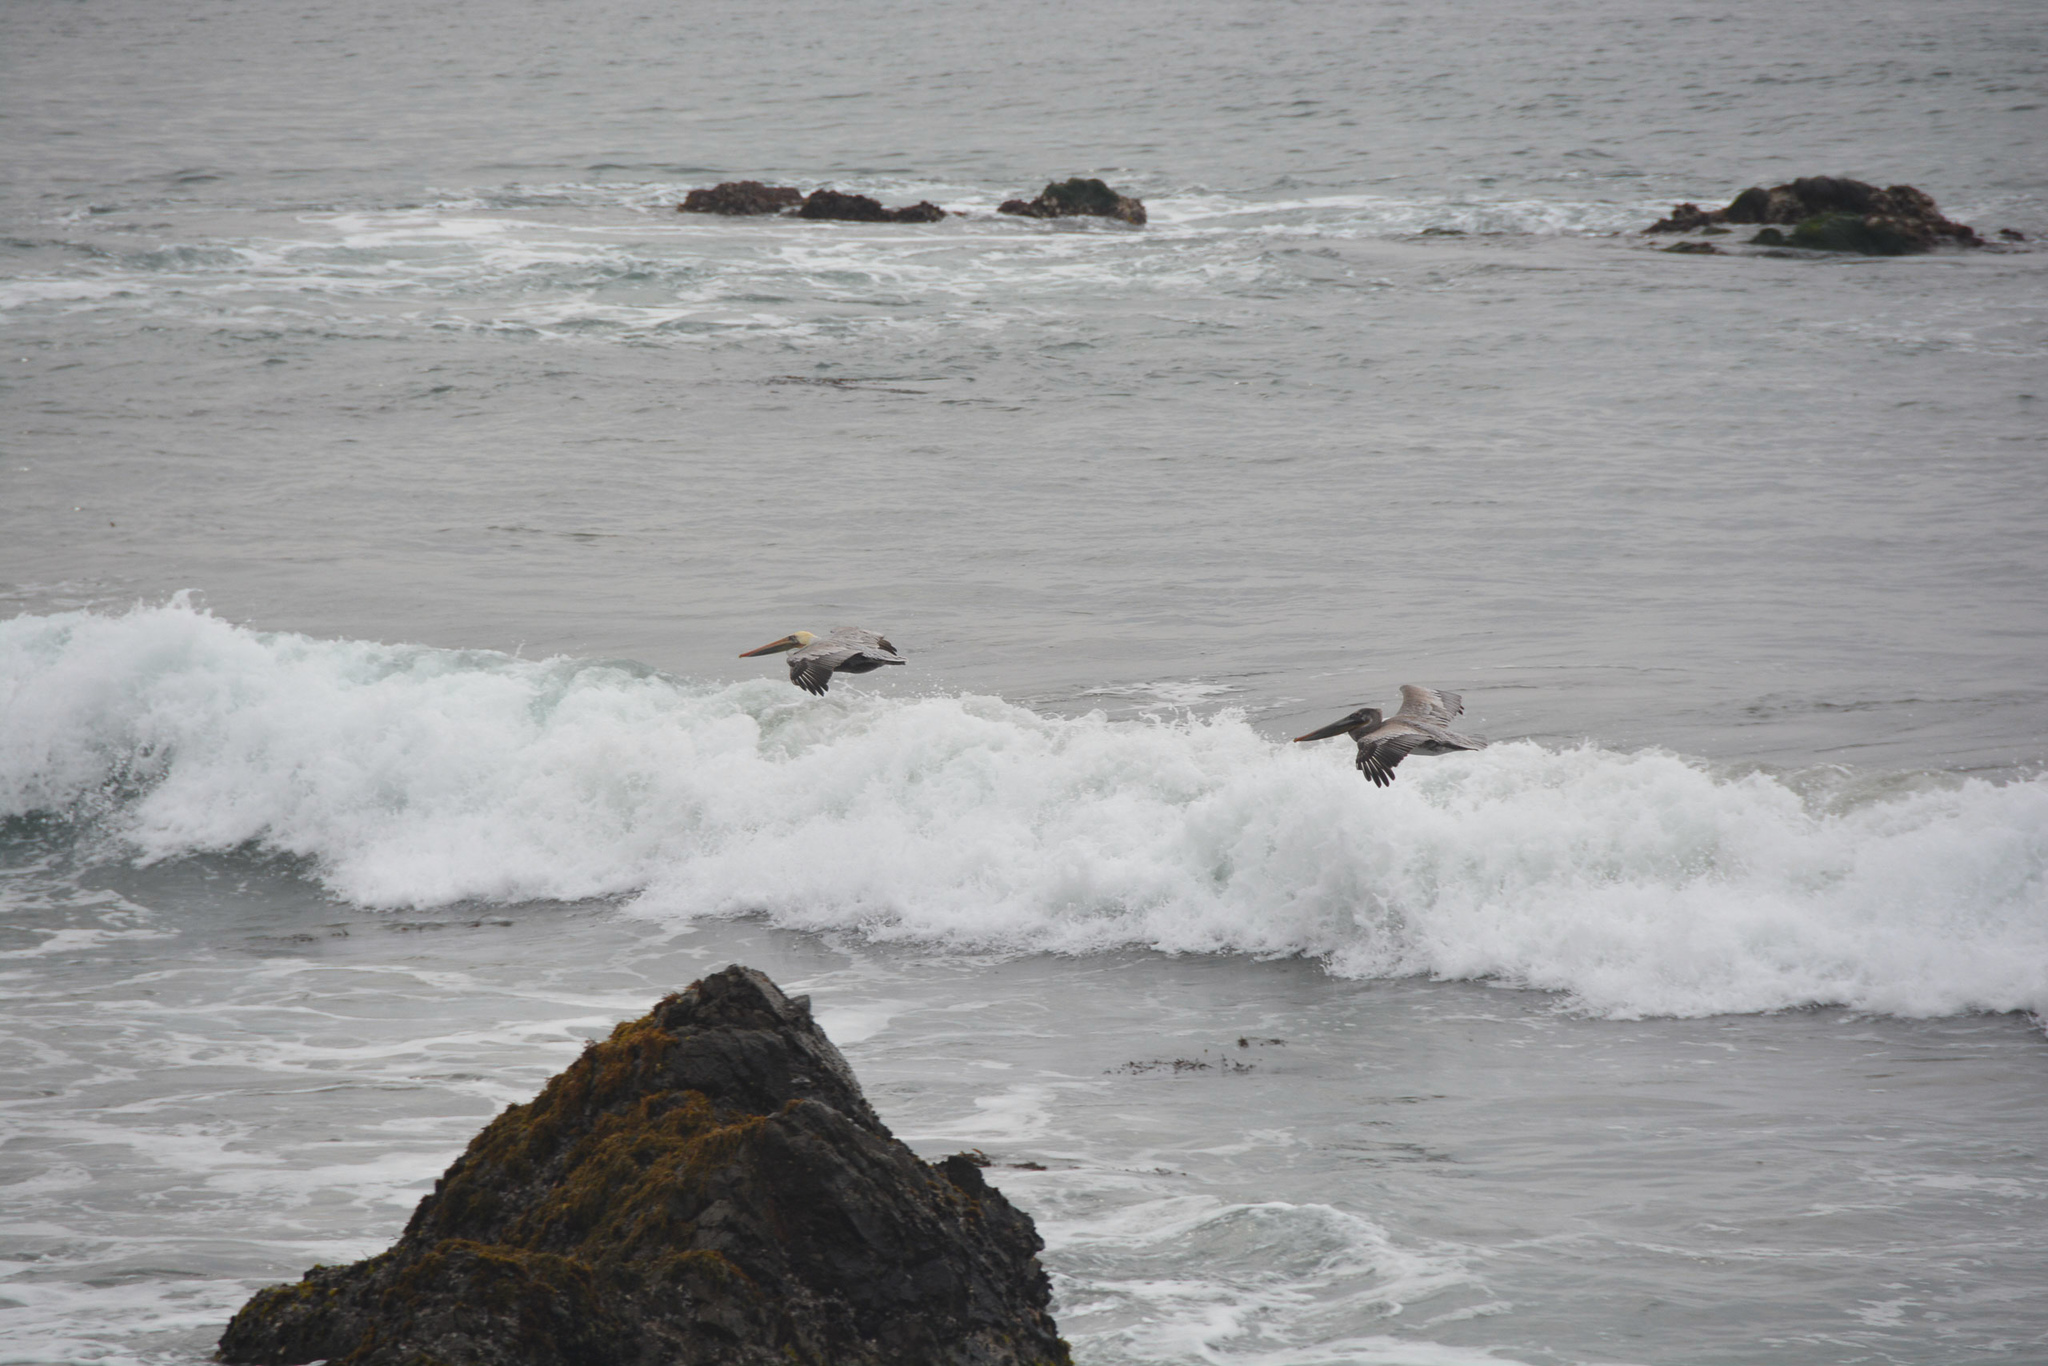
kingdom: Animalia
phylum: Chordata
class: Aves
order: Pelecaniformes
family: Pelecanidae
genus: Pelecanus
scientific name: Pelecanus occidentalis
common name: Brown pelican
